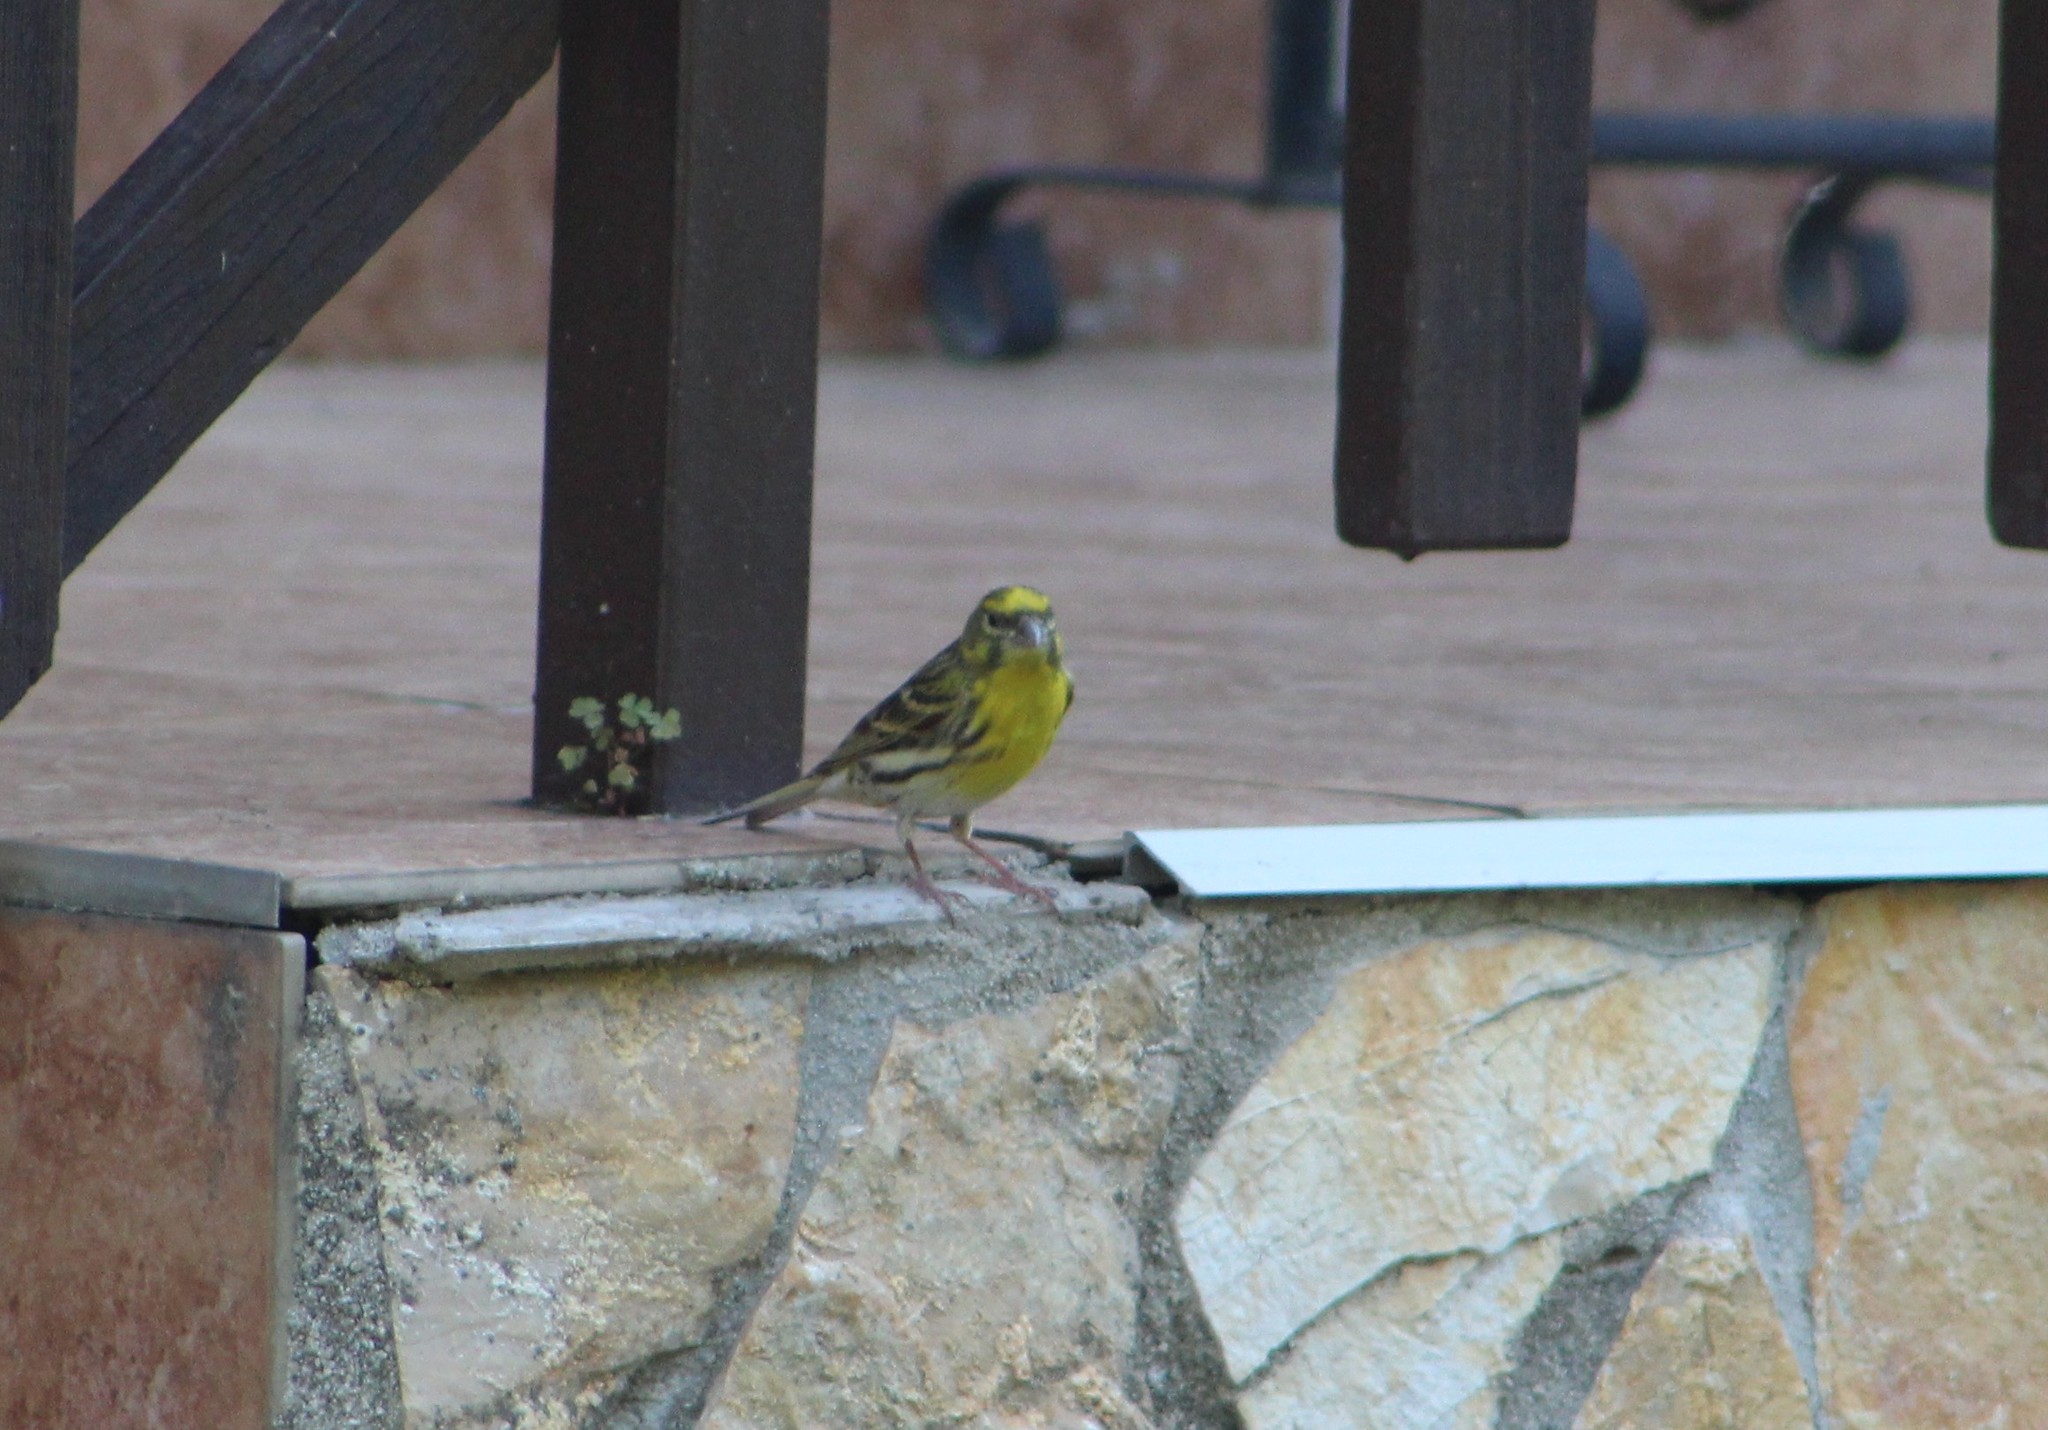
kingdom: Animalia
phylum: Chordata
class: Aves
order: Passeriformes
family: Fringillidae
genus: Serinus
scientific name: Serinus serinus
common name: European serin
